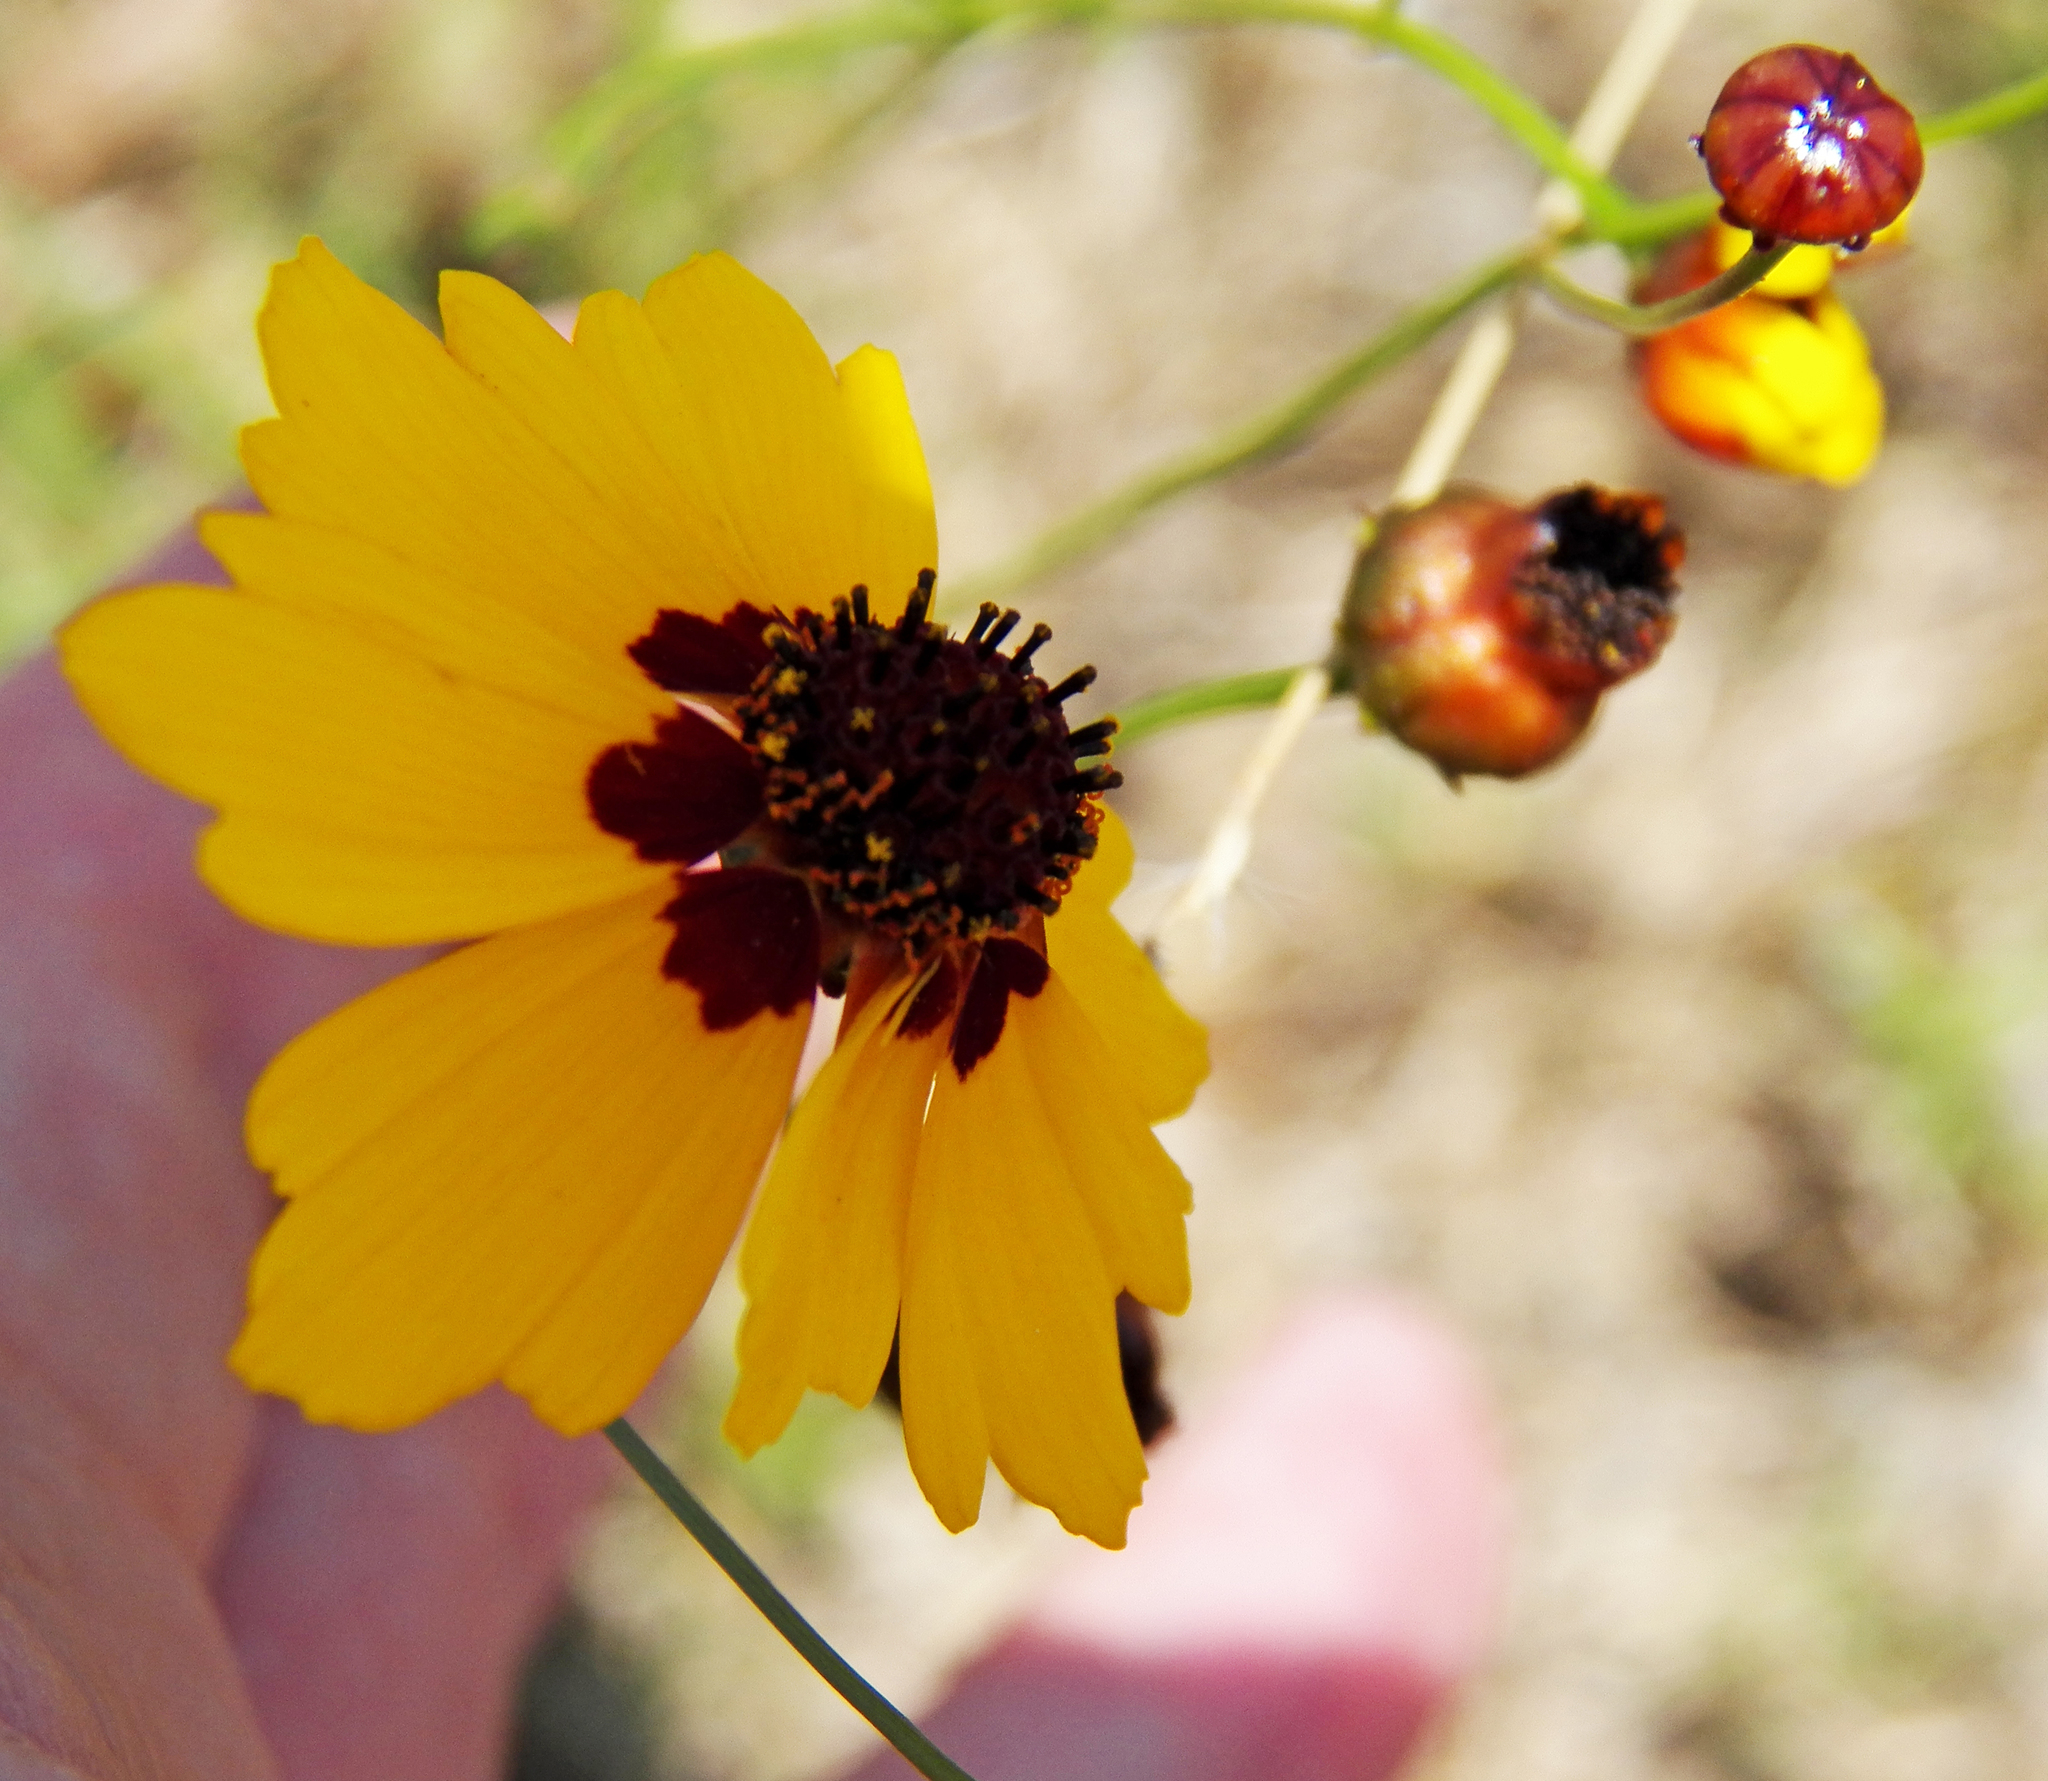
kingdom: Plantae
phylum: Tracheophyta
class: Magnoliopsida
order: Asterales
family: Asteraceae
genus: Coreopsis
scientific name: Coreopsis tinctoria
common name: Garden tickseed
